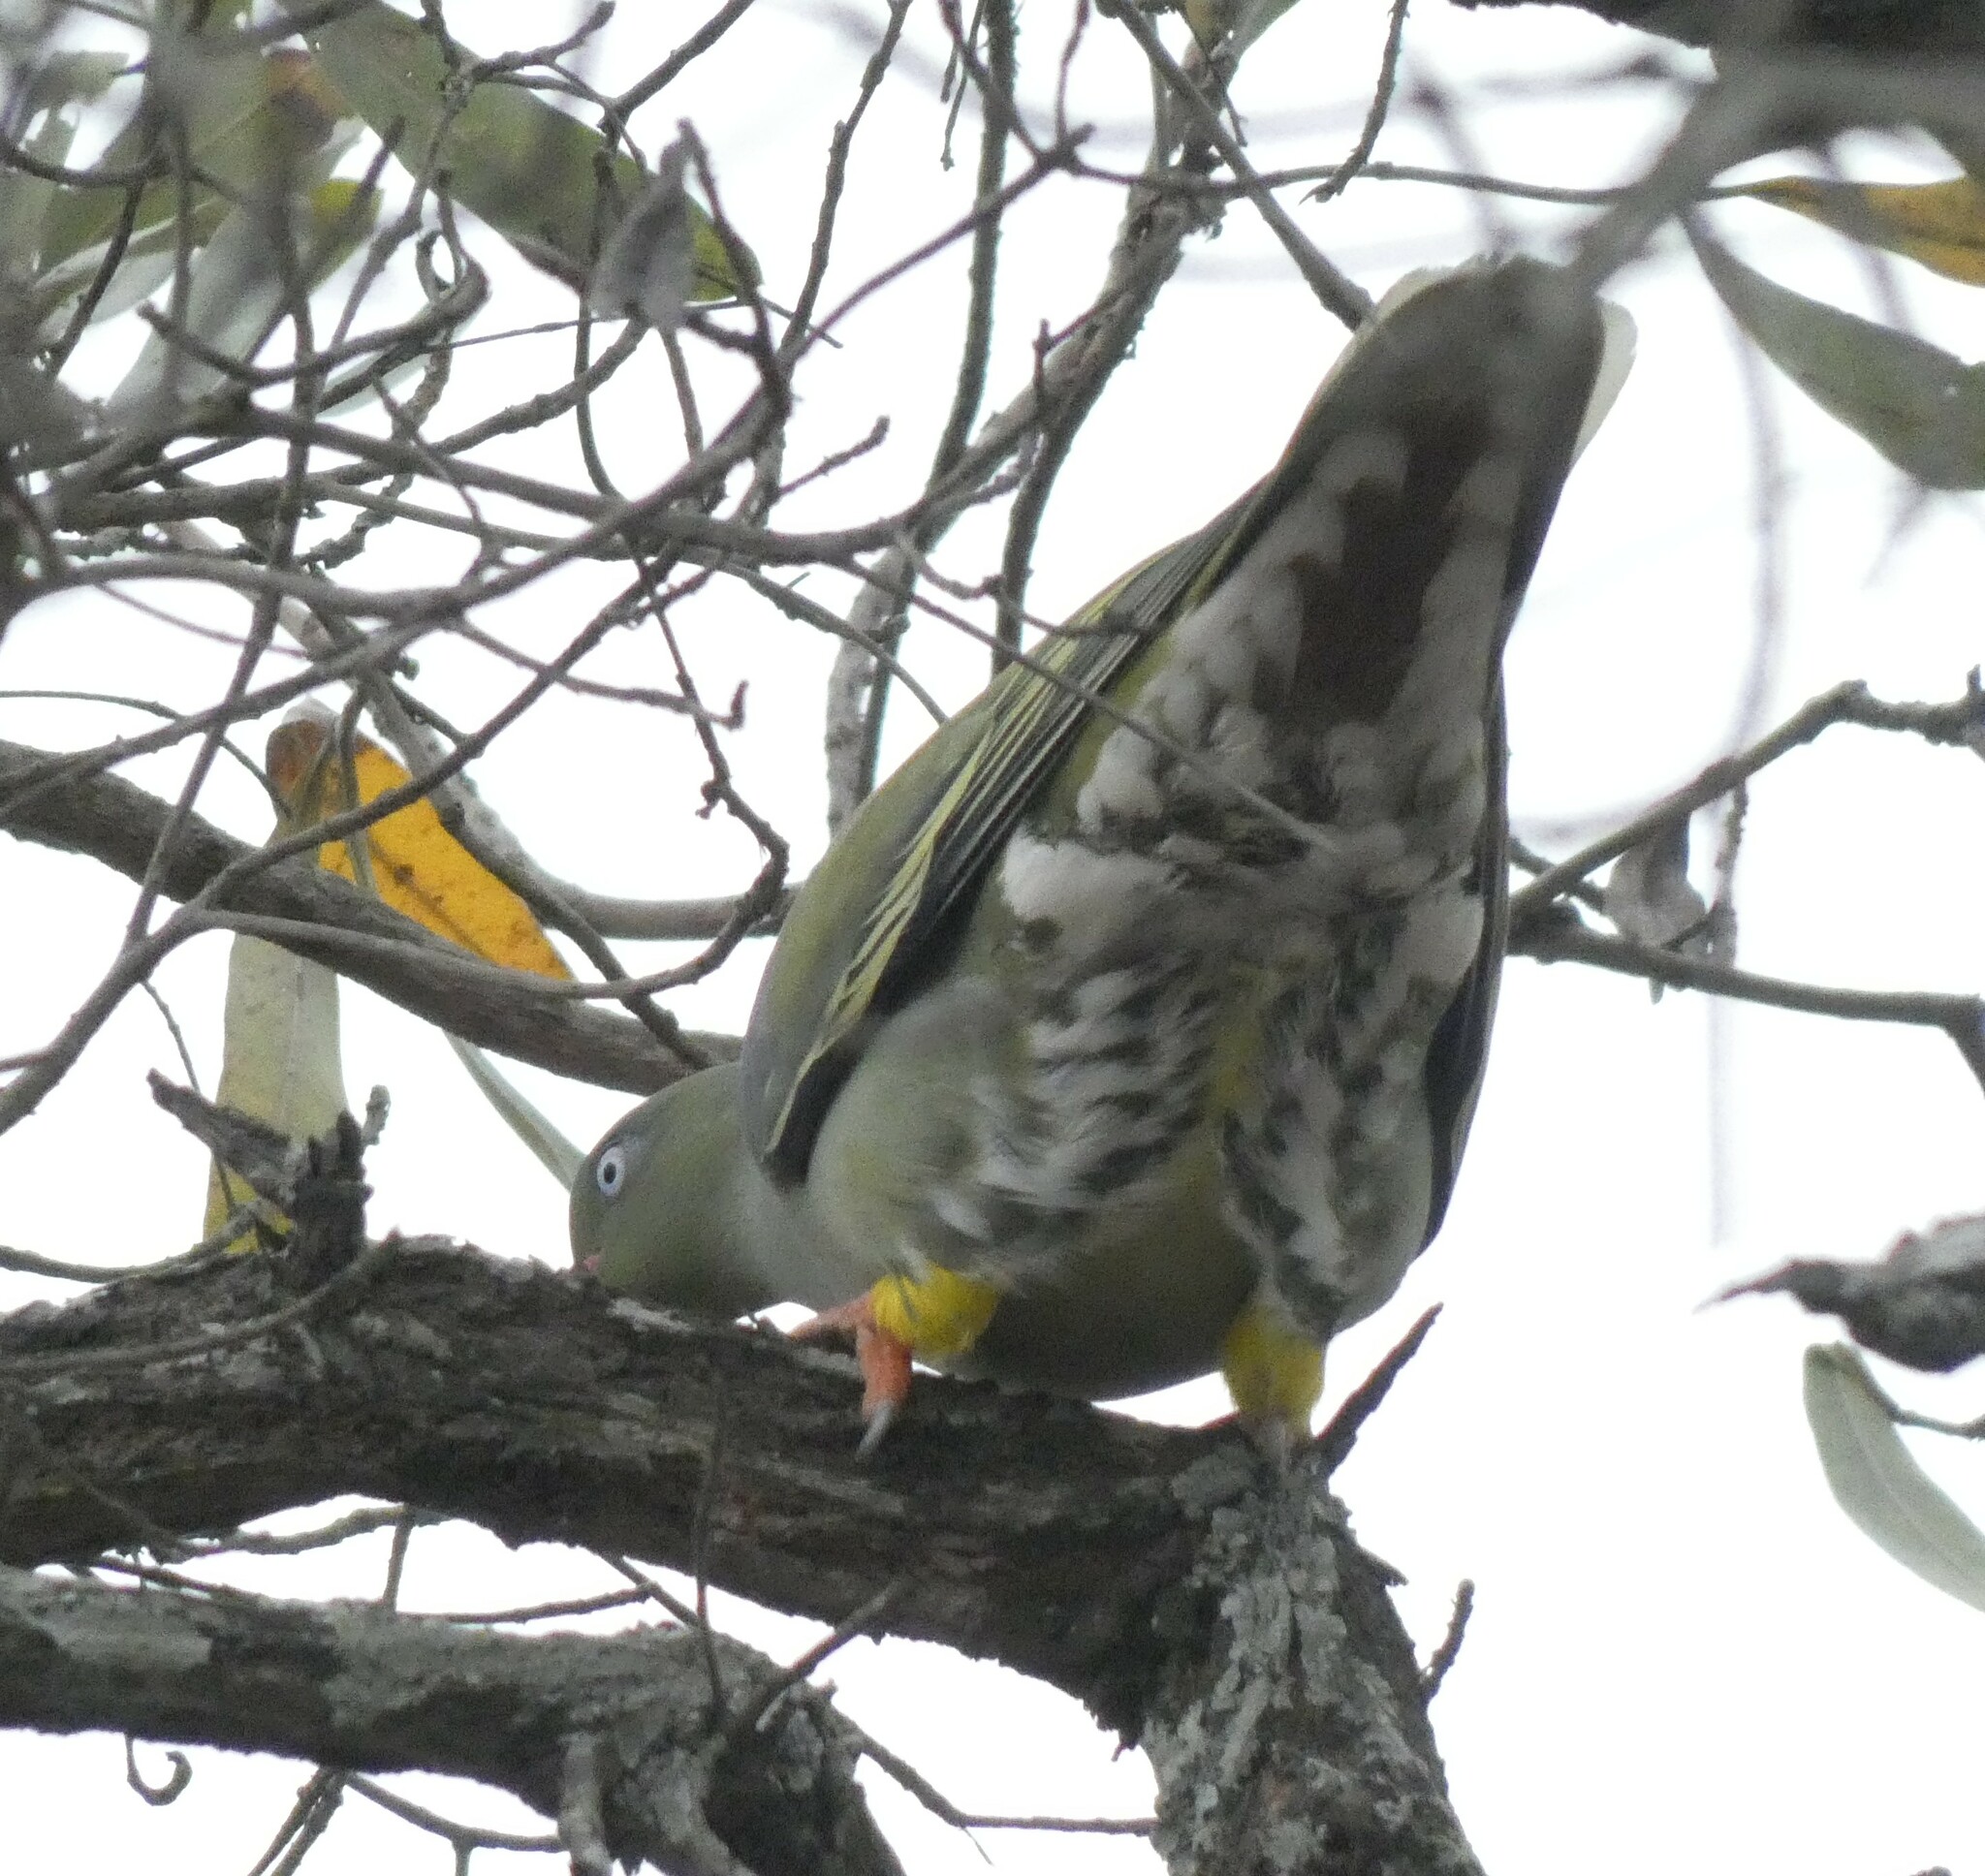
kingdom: Animalia
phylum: Chordata
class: Aves
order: Columbiformes
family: Columbidae
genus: Treron
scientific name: Treron calvus
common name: African green pigeon
